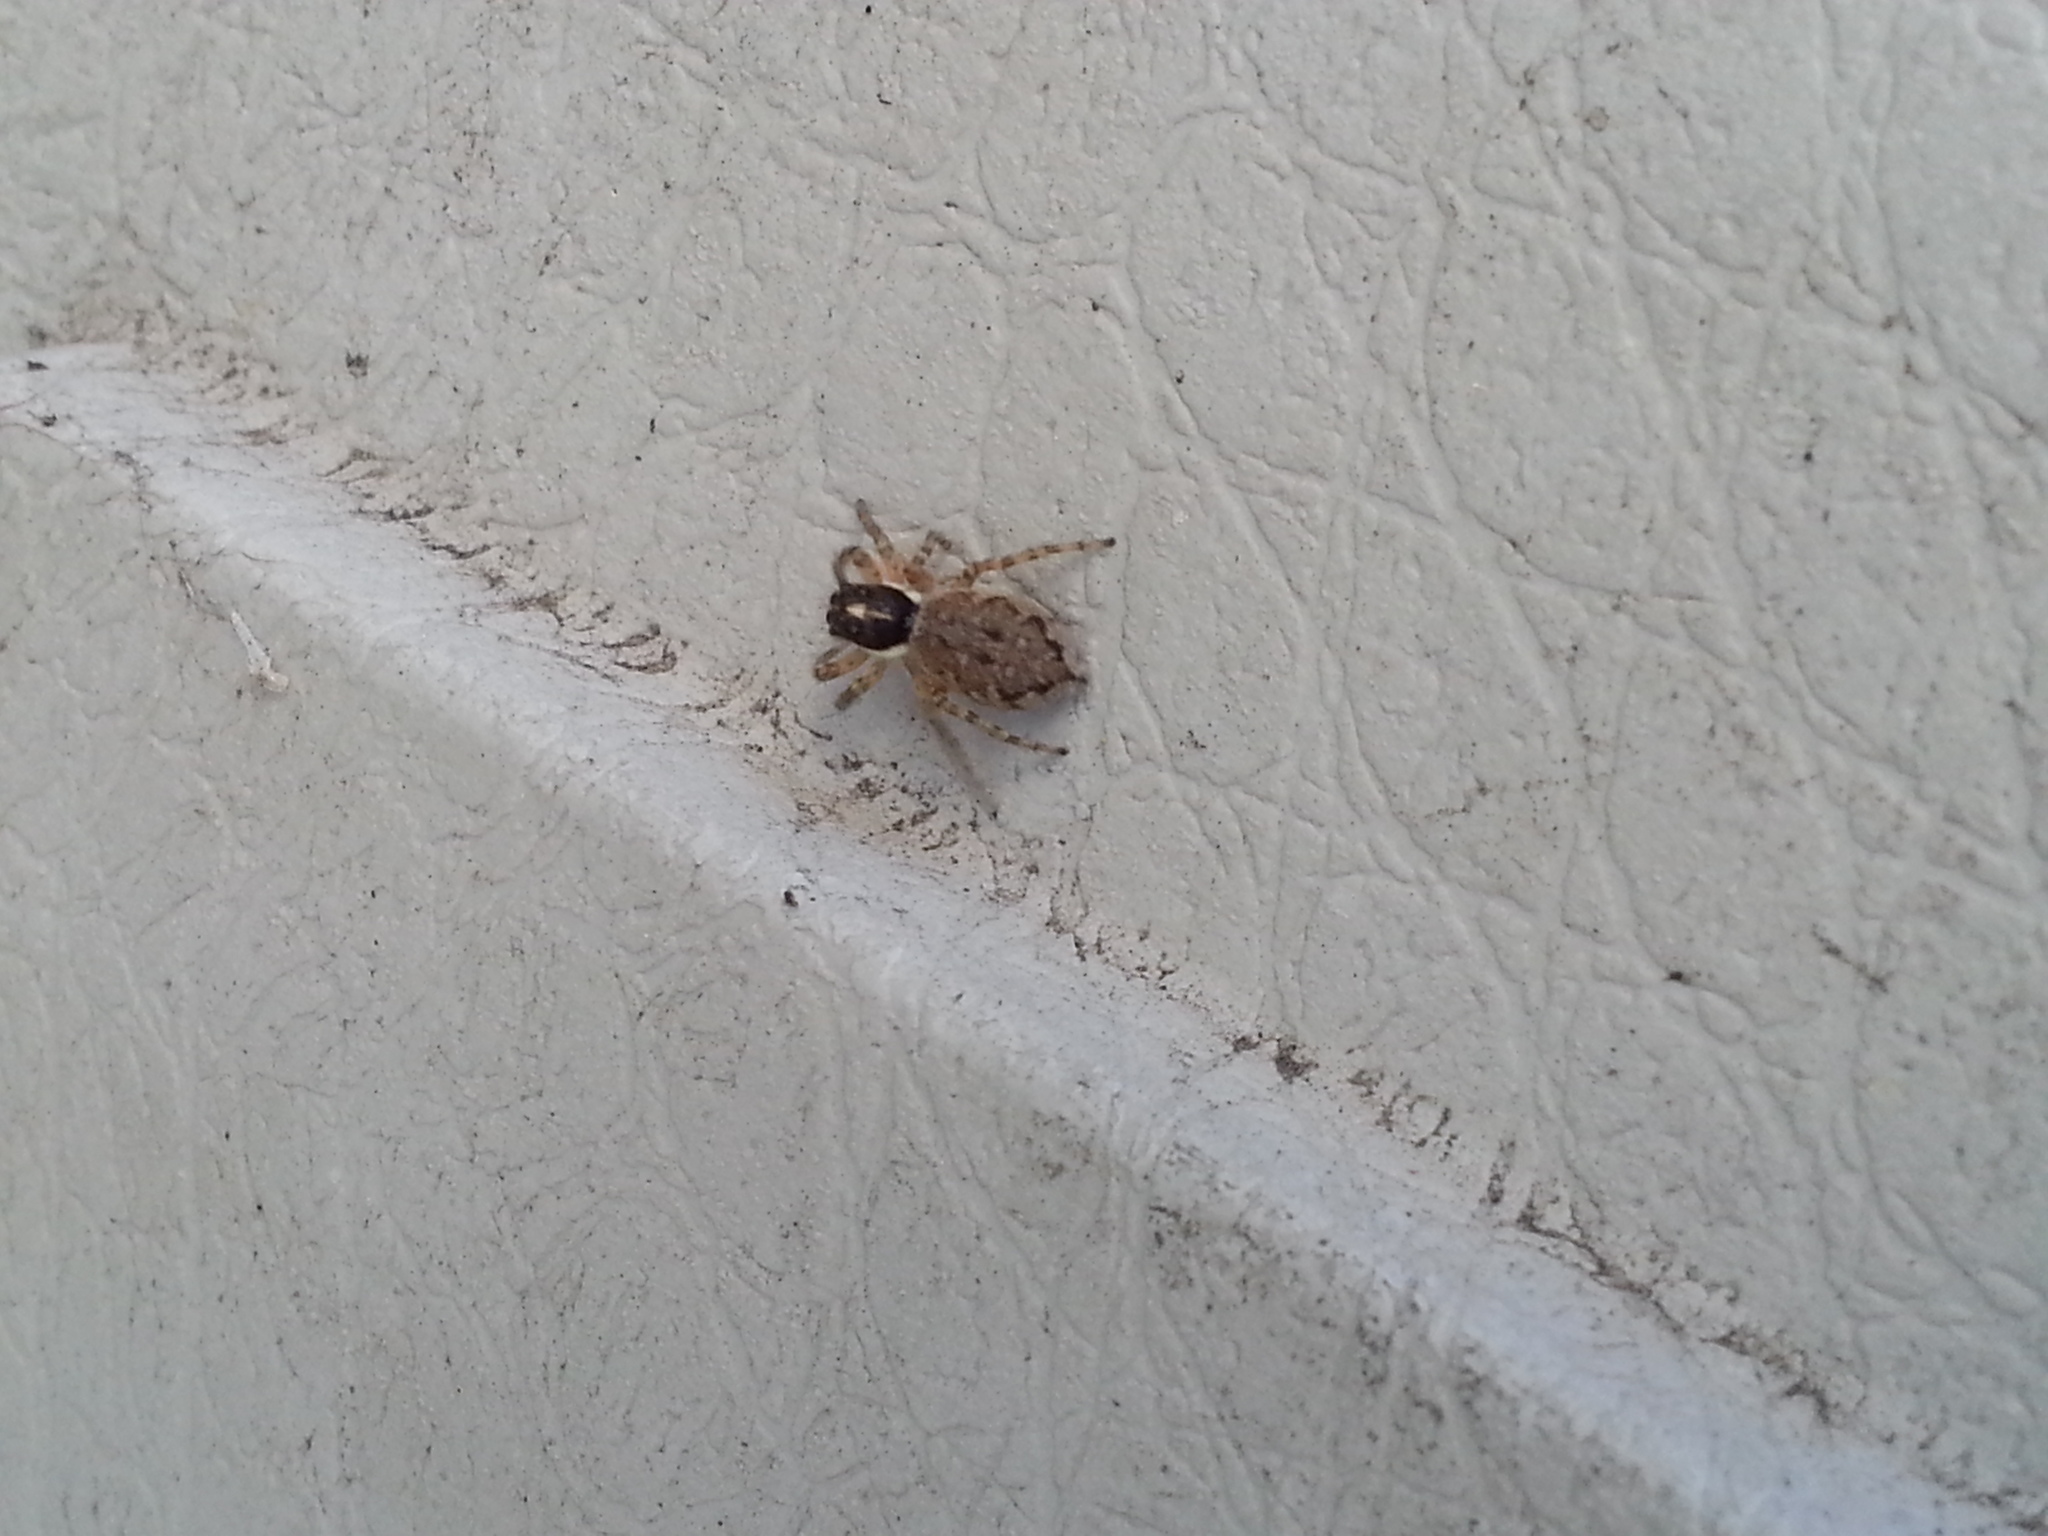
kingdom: Animalia
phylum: Arthropoda
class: Arachnida
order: Araneae
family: Salticidae
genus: Menemerus
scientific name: Menemerus semilimbatus
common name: Jumping spider
